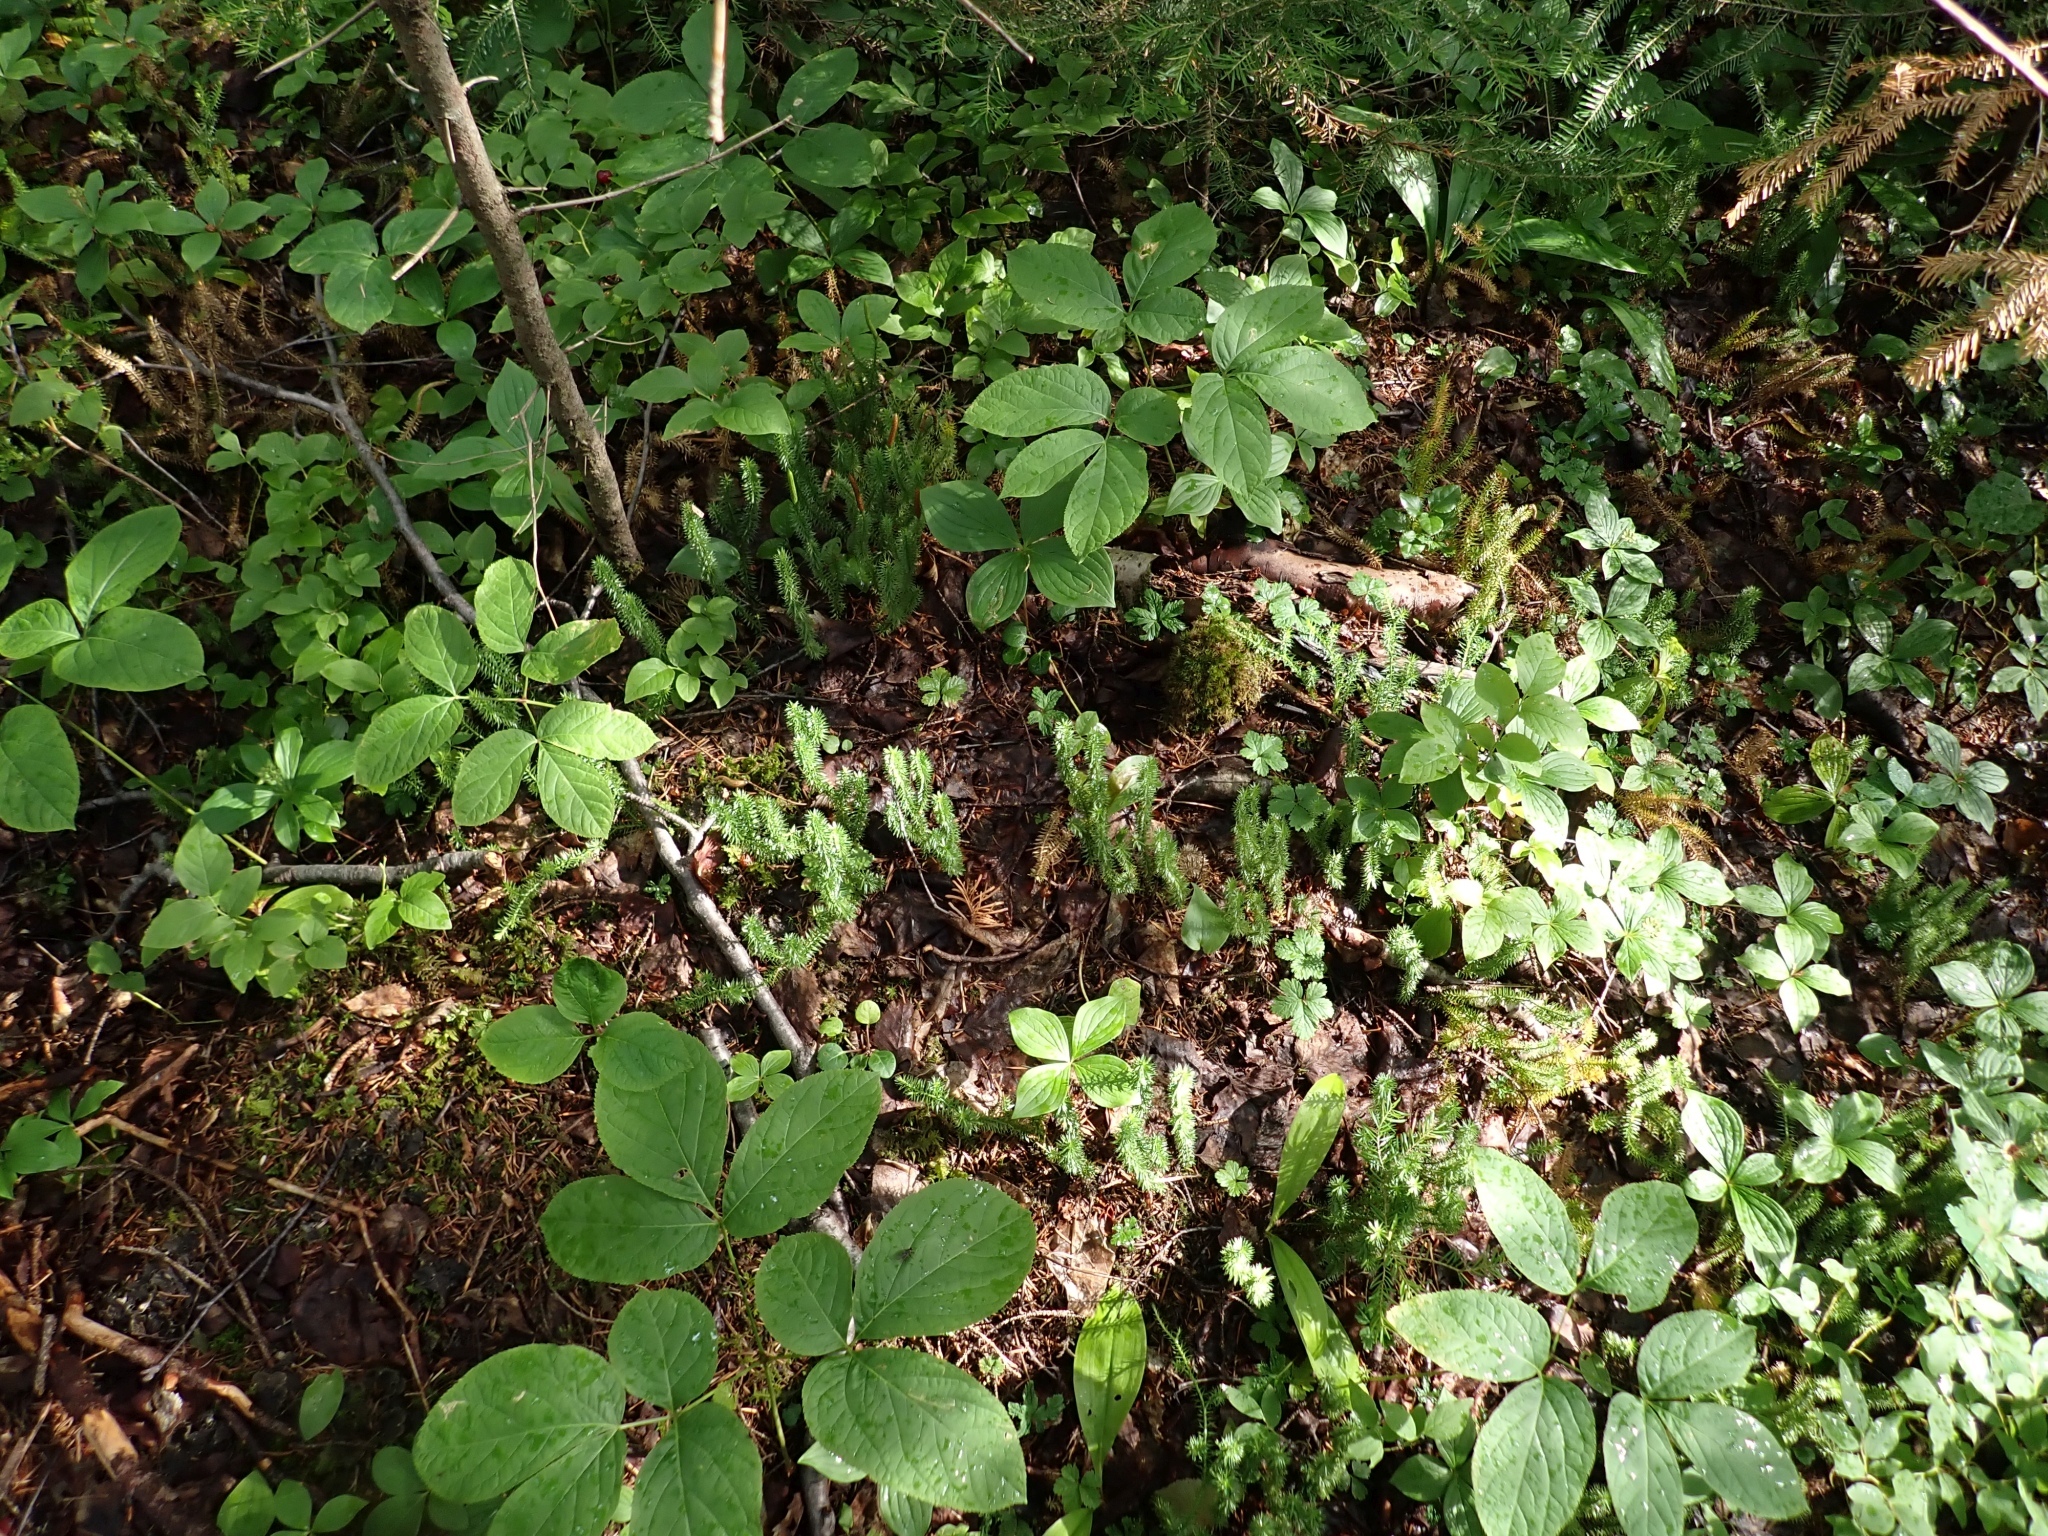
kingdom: Plantae
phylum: Tracheophyta
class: Lycopodiopsida
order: Lycopodiales
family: Lycopodiaceae
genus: Spinulum
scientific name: Spinulum annotinum
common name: Interrupted club-moss
